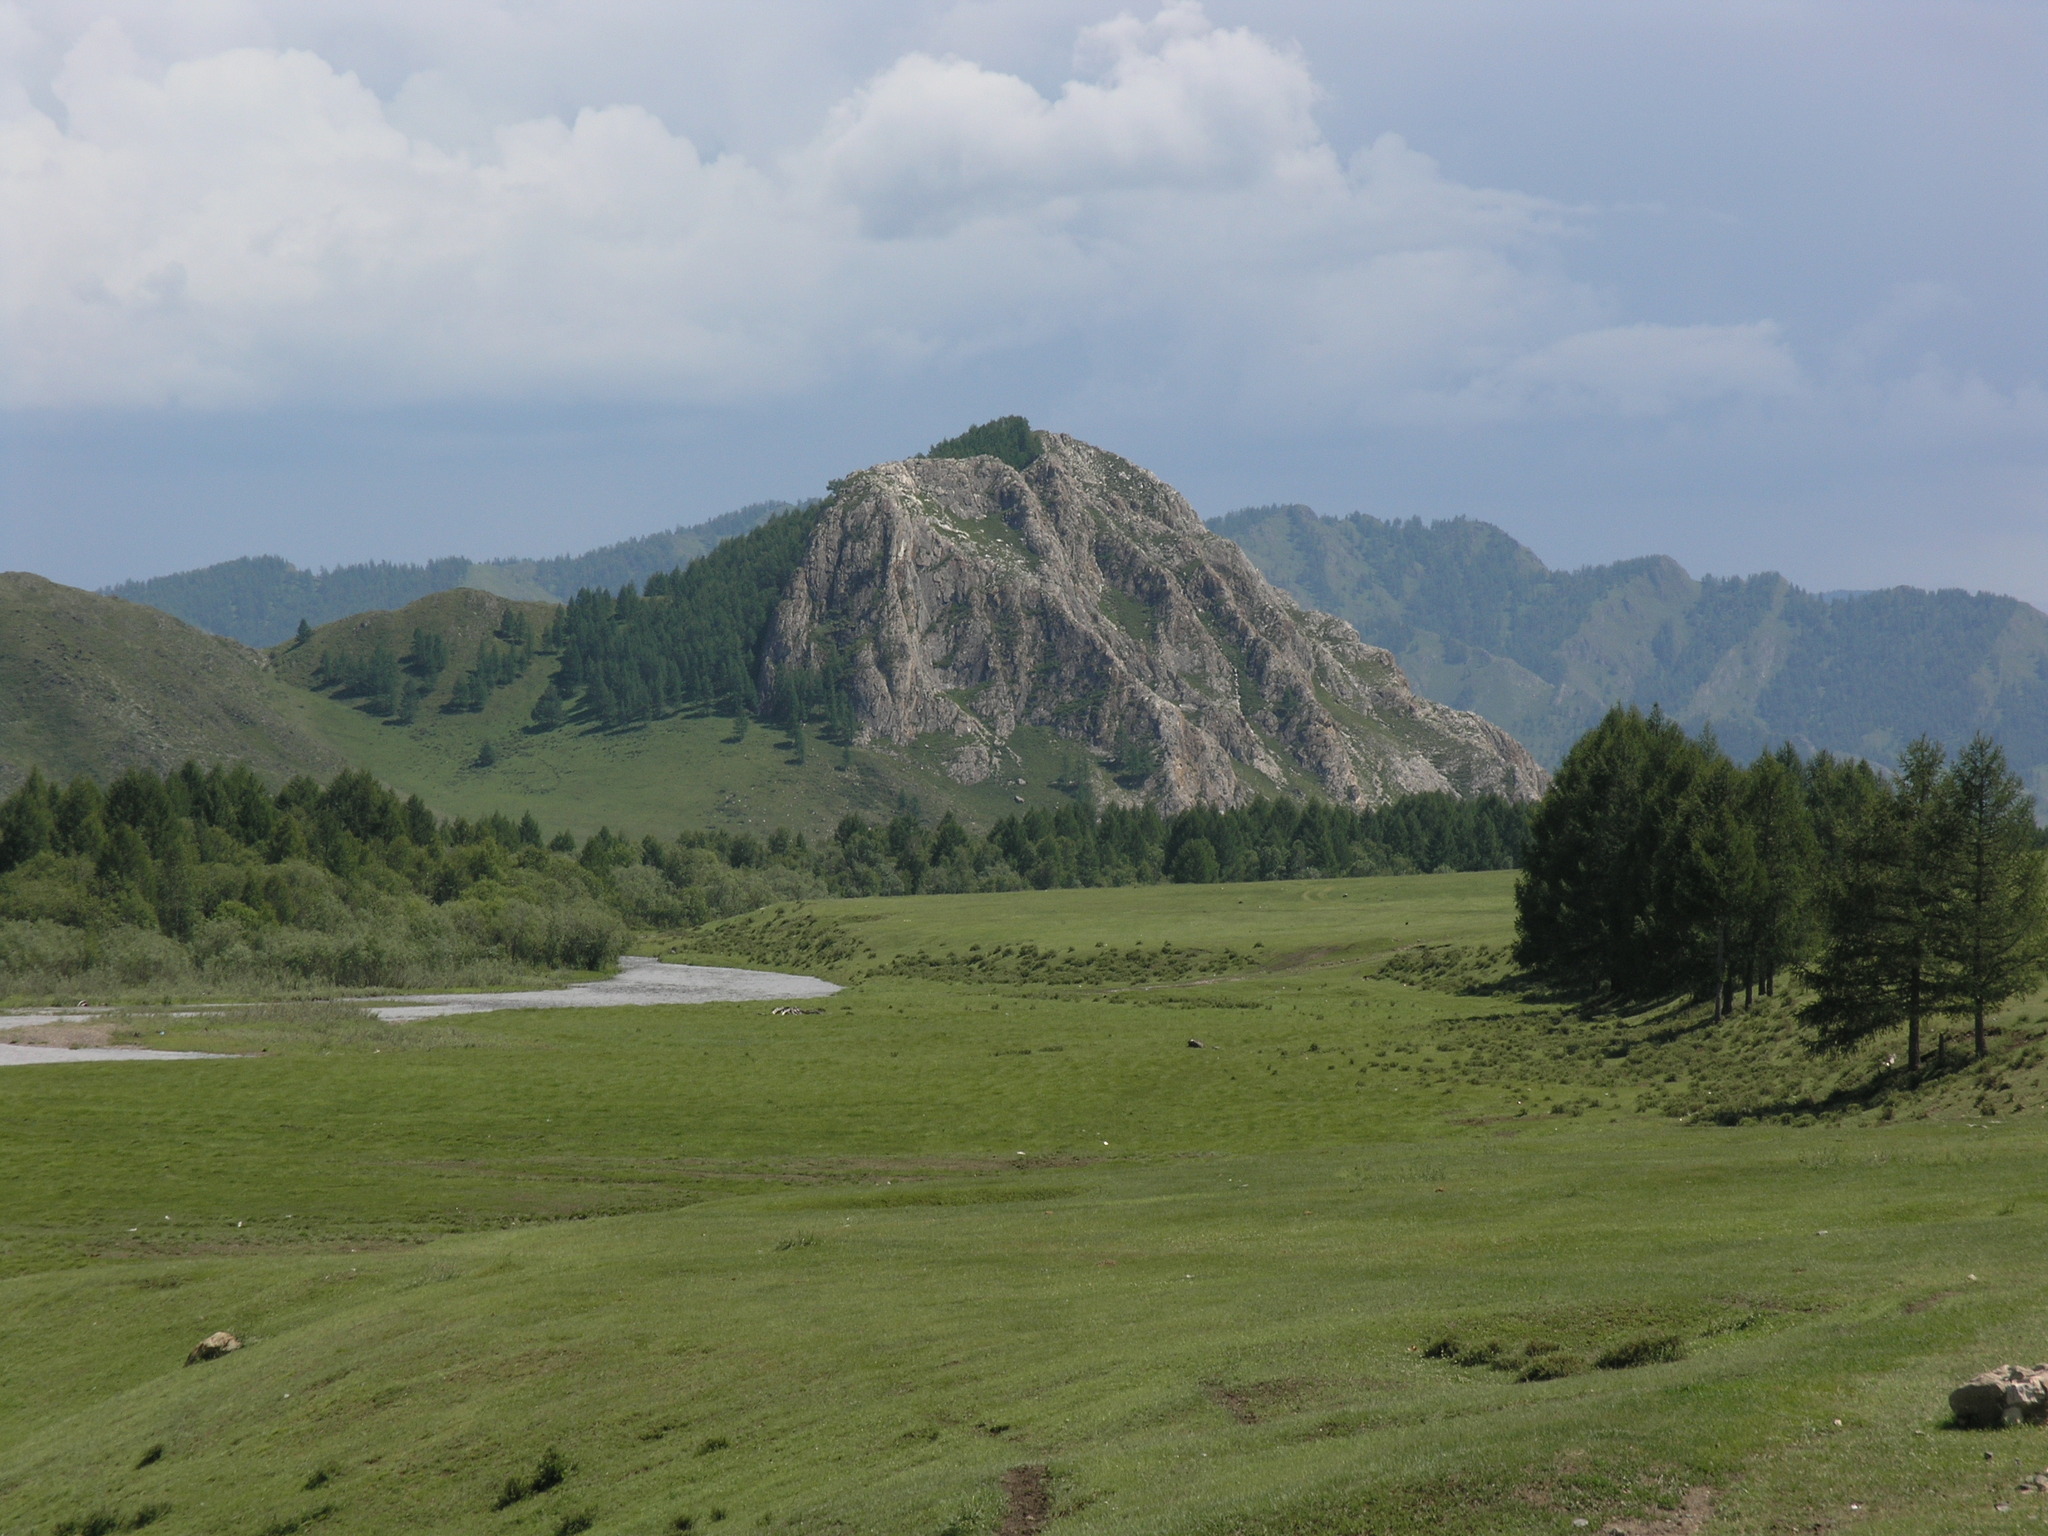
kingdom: Plantae
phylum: Tracheophyta
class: Pinopsida
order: Pinales
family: Pinaceae
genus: Larix
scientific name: Larix sibirica
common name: Siberian larch
